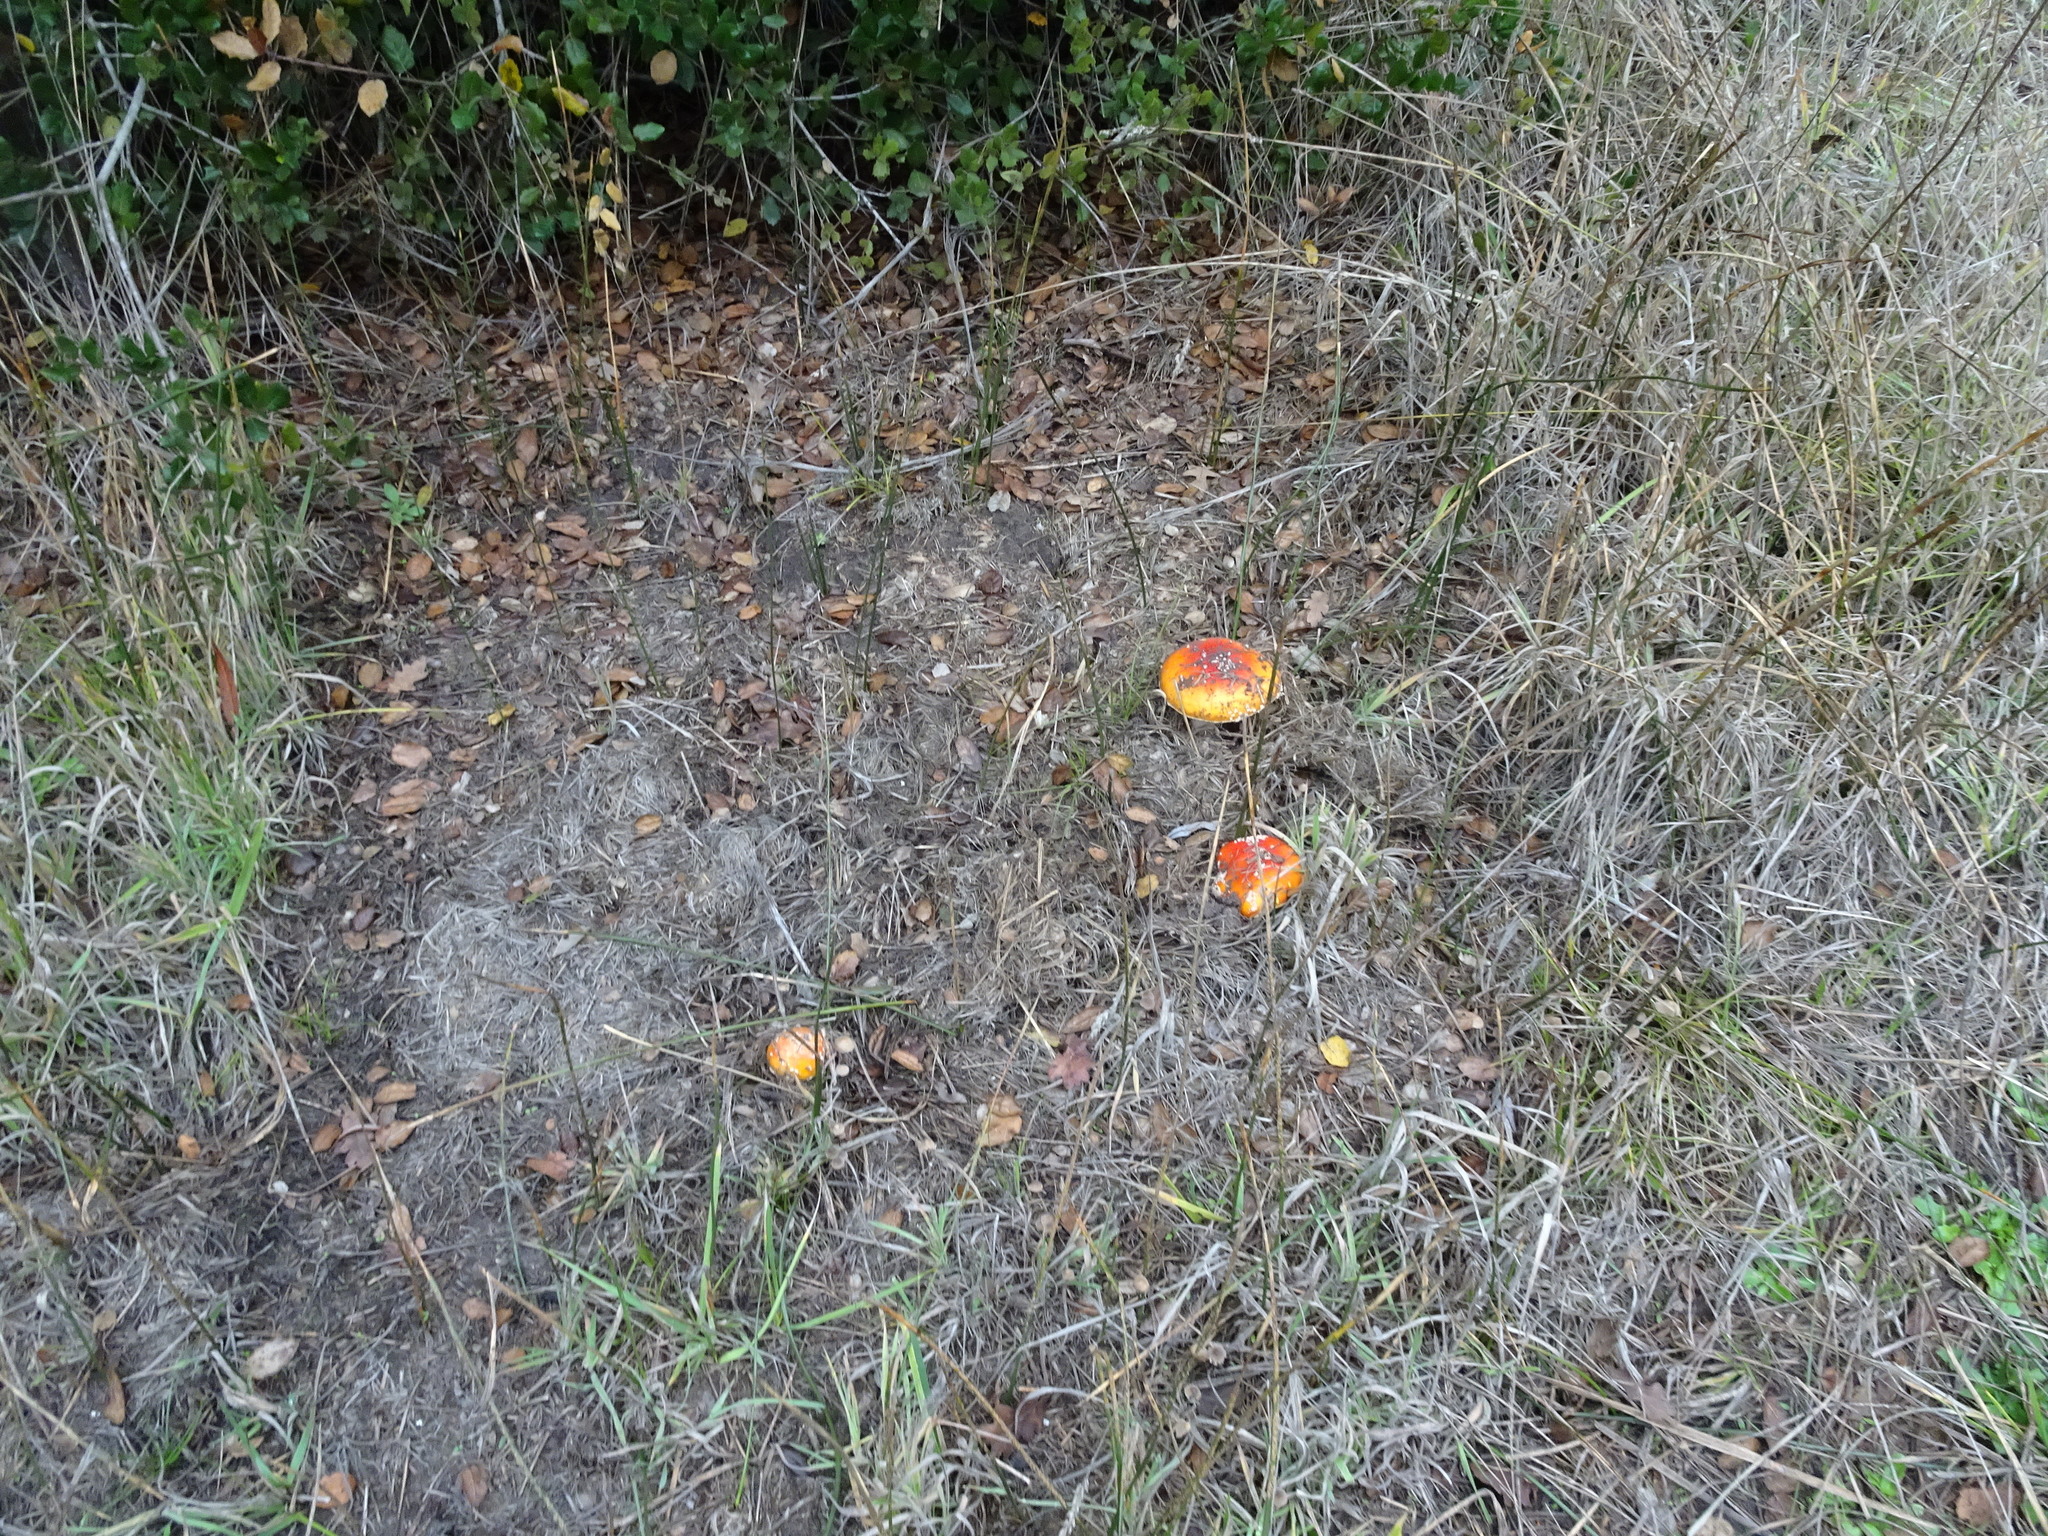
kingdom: Fungi
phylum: Basidiomycota
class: Agaricomycetes
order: Agaricales
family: Amanitaceae
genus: Amanita
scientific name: Amanita muscaria
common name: Fly agaric
